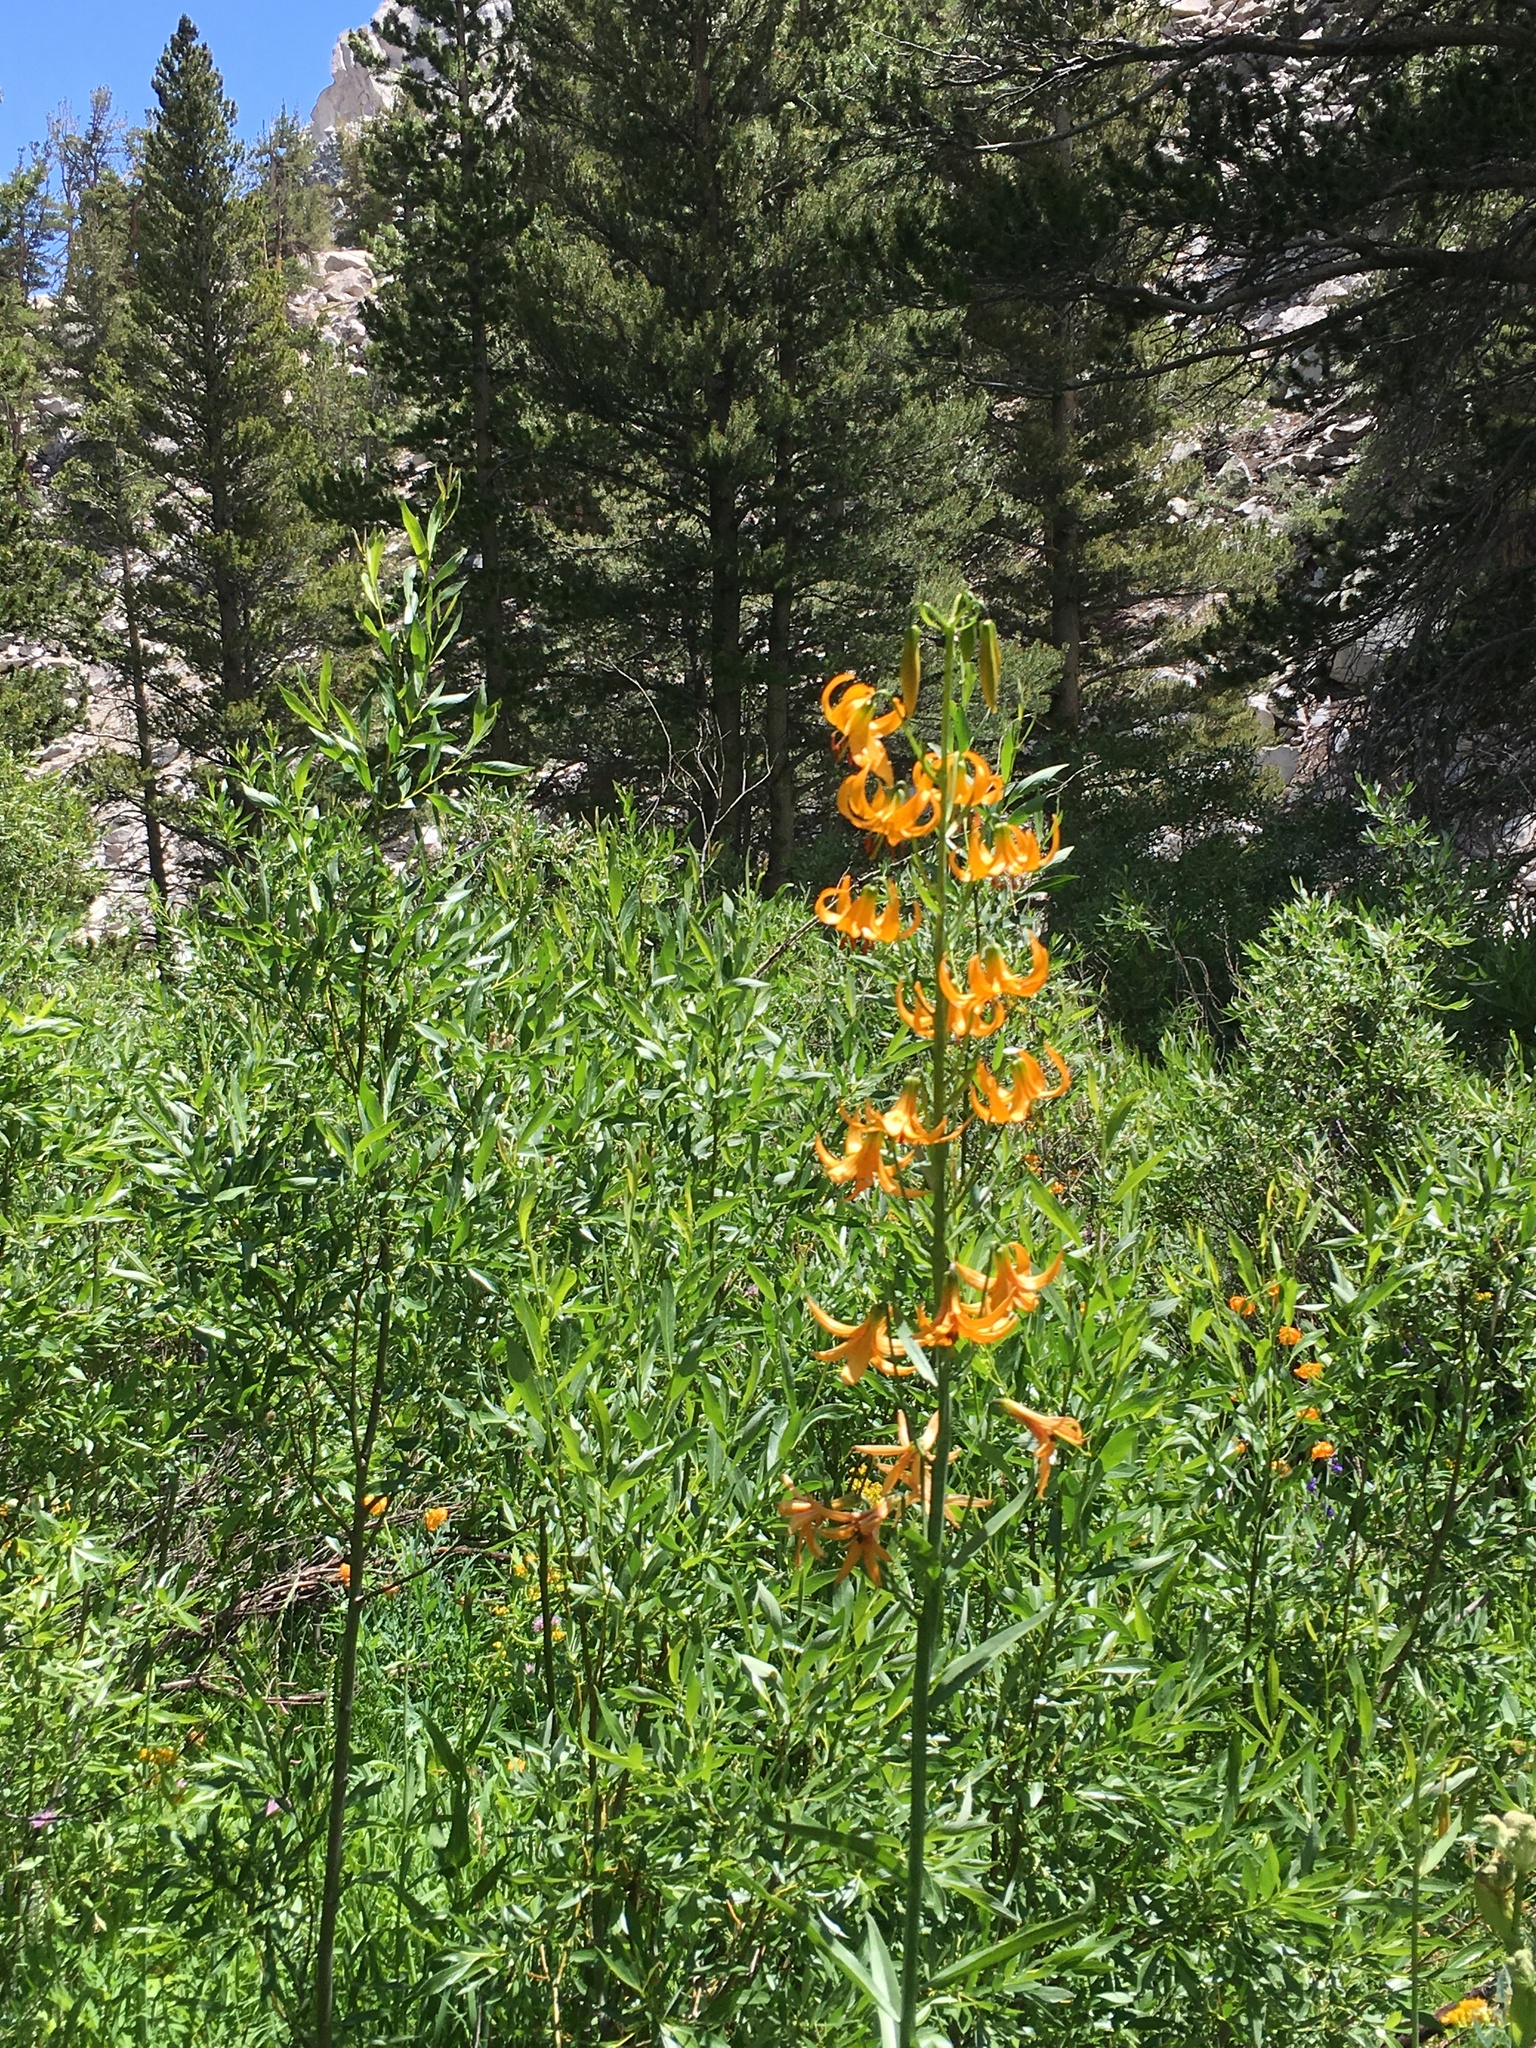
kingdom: Plantae
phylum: Tracheophyta
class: Liliopsida
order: Liliales
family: Liliaceae
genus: Lilium
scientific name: Lilium kelleyanum
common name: Kelley's lily
